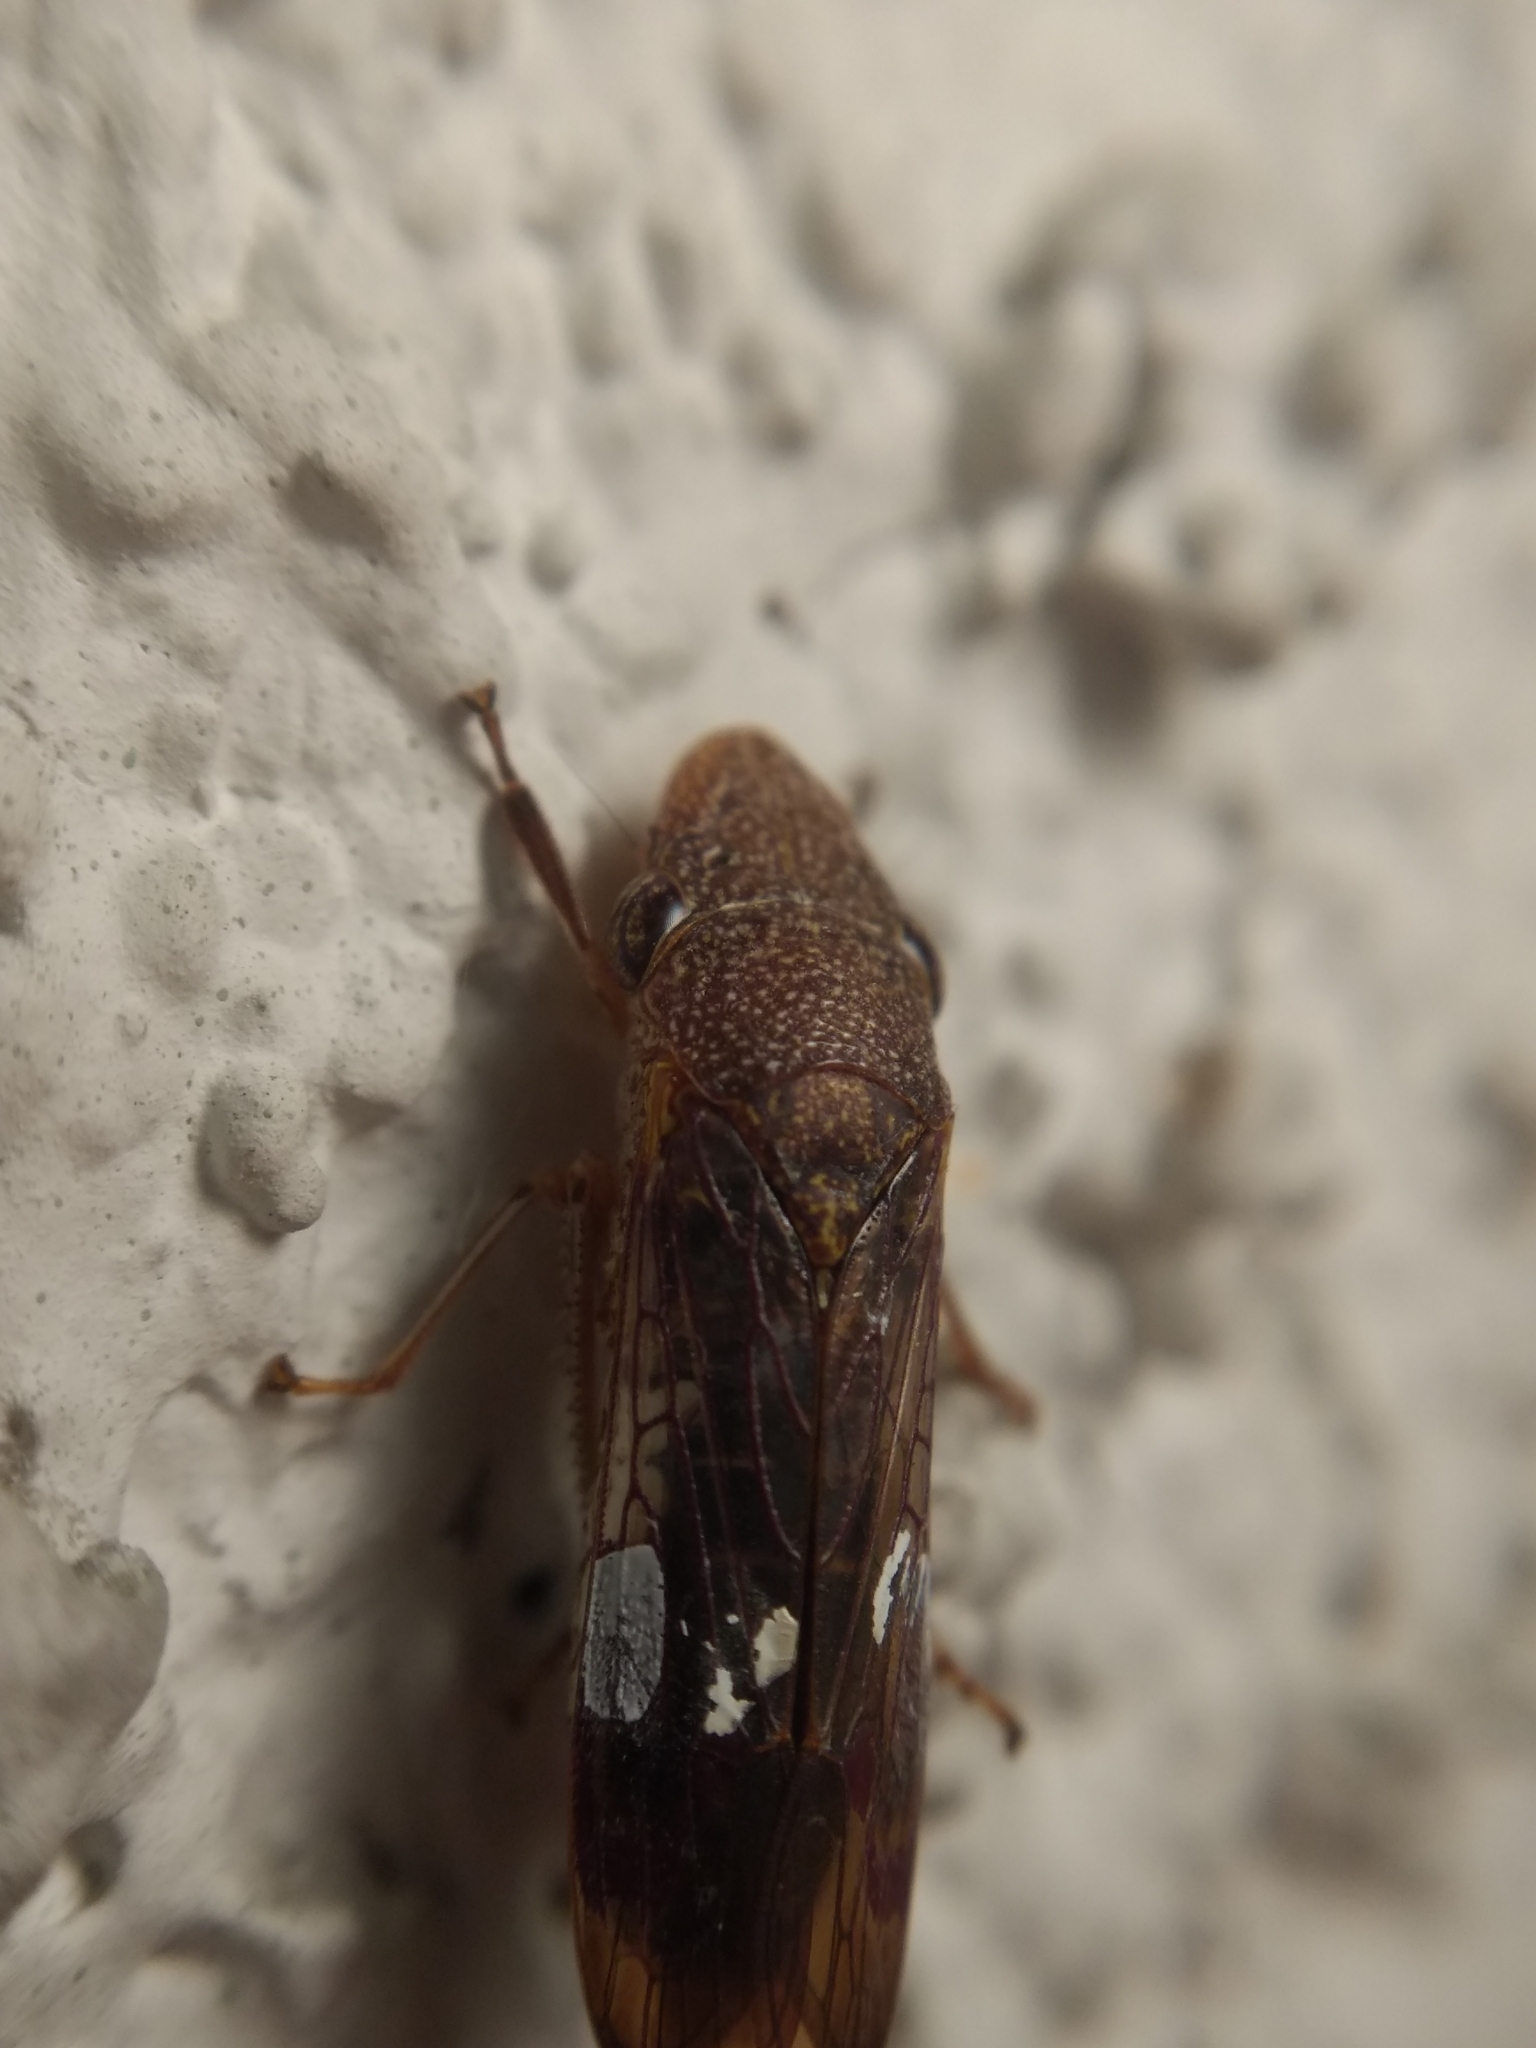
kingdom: Animalia
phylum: Arthropoda
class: Insecta
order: Hemiptera
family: Cicadellidae
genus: Homalodisca
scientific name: Homalodisca vitripennis
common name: Glassy-winged sharpshooter
